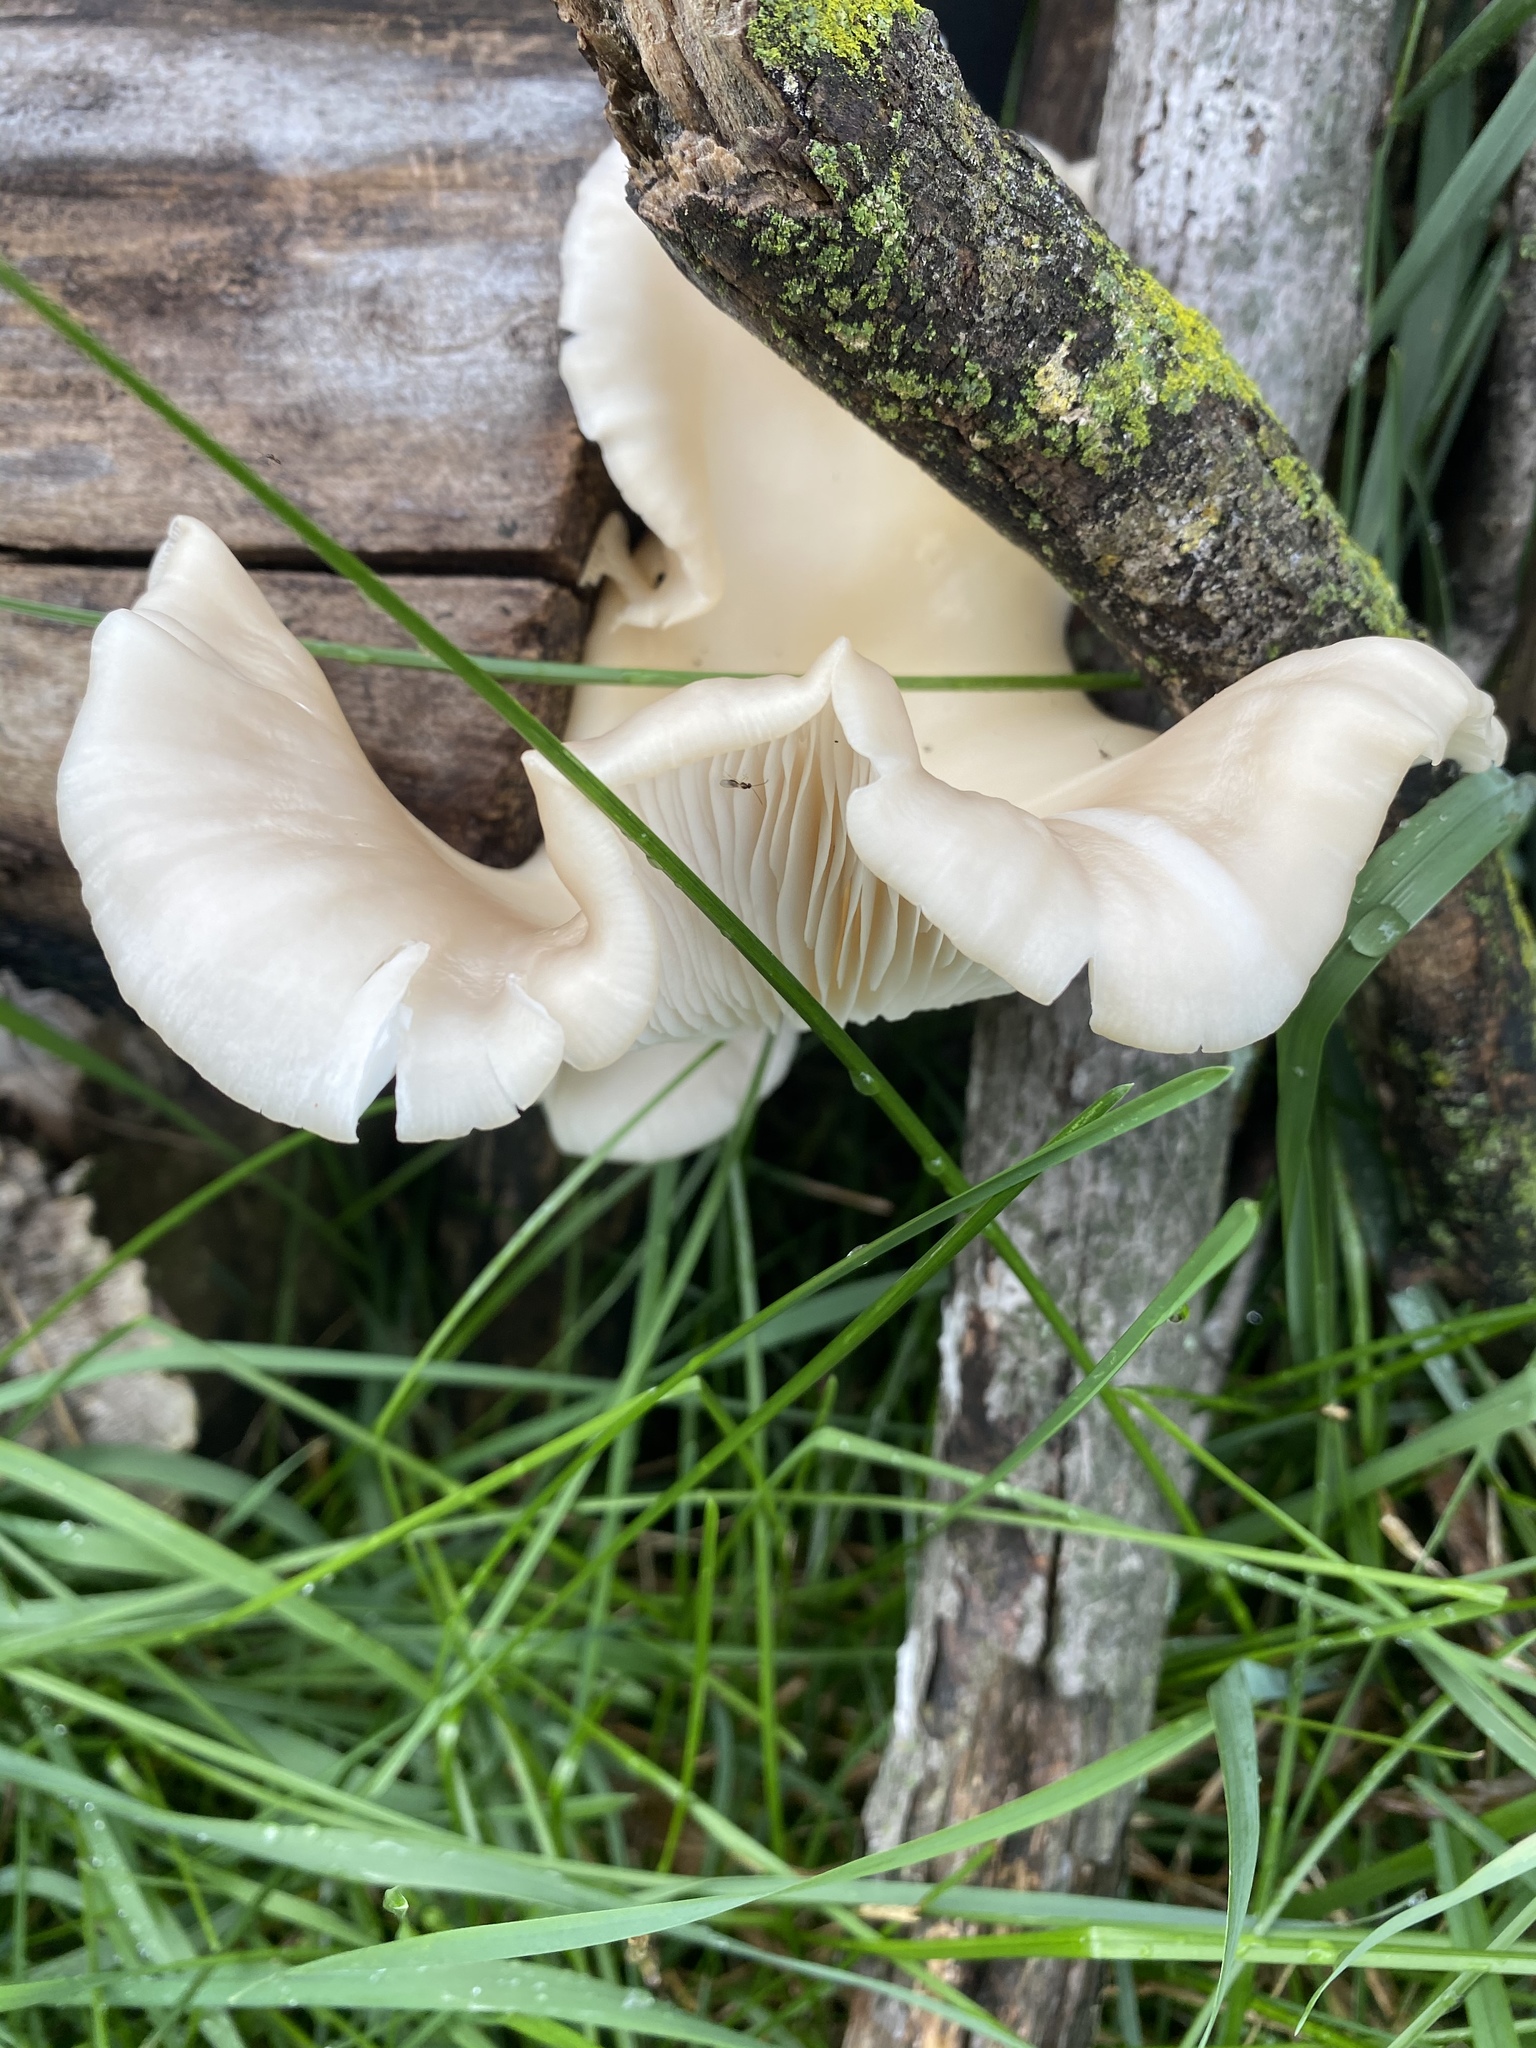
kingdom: Fungi
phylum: Basidiomycota
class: Agaricomycetes
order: Agaricales
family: Pleurotaceae
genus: Pleurotus
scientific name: Pleurotus ostreatus
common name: Oyster mushroom
